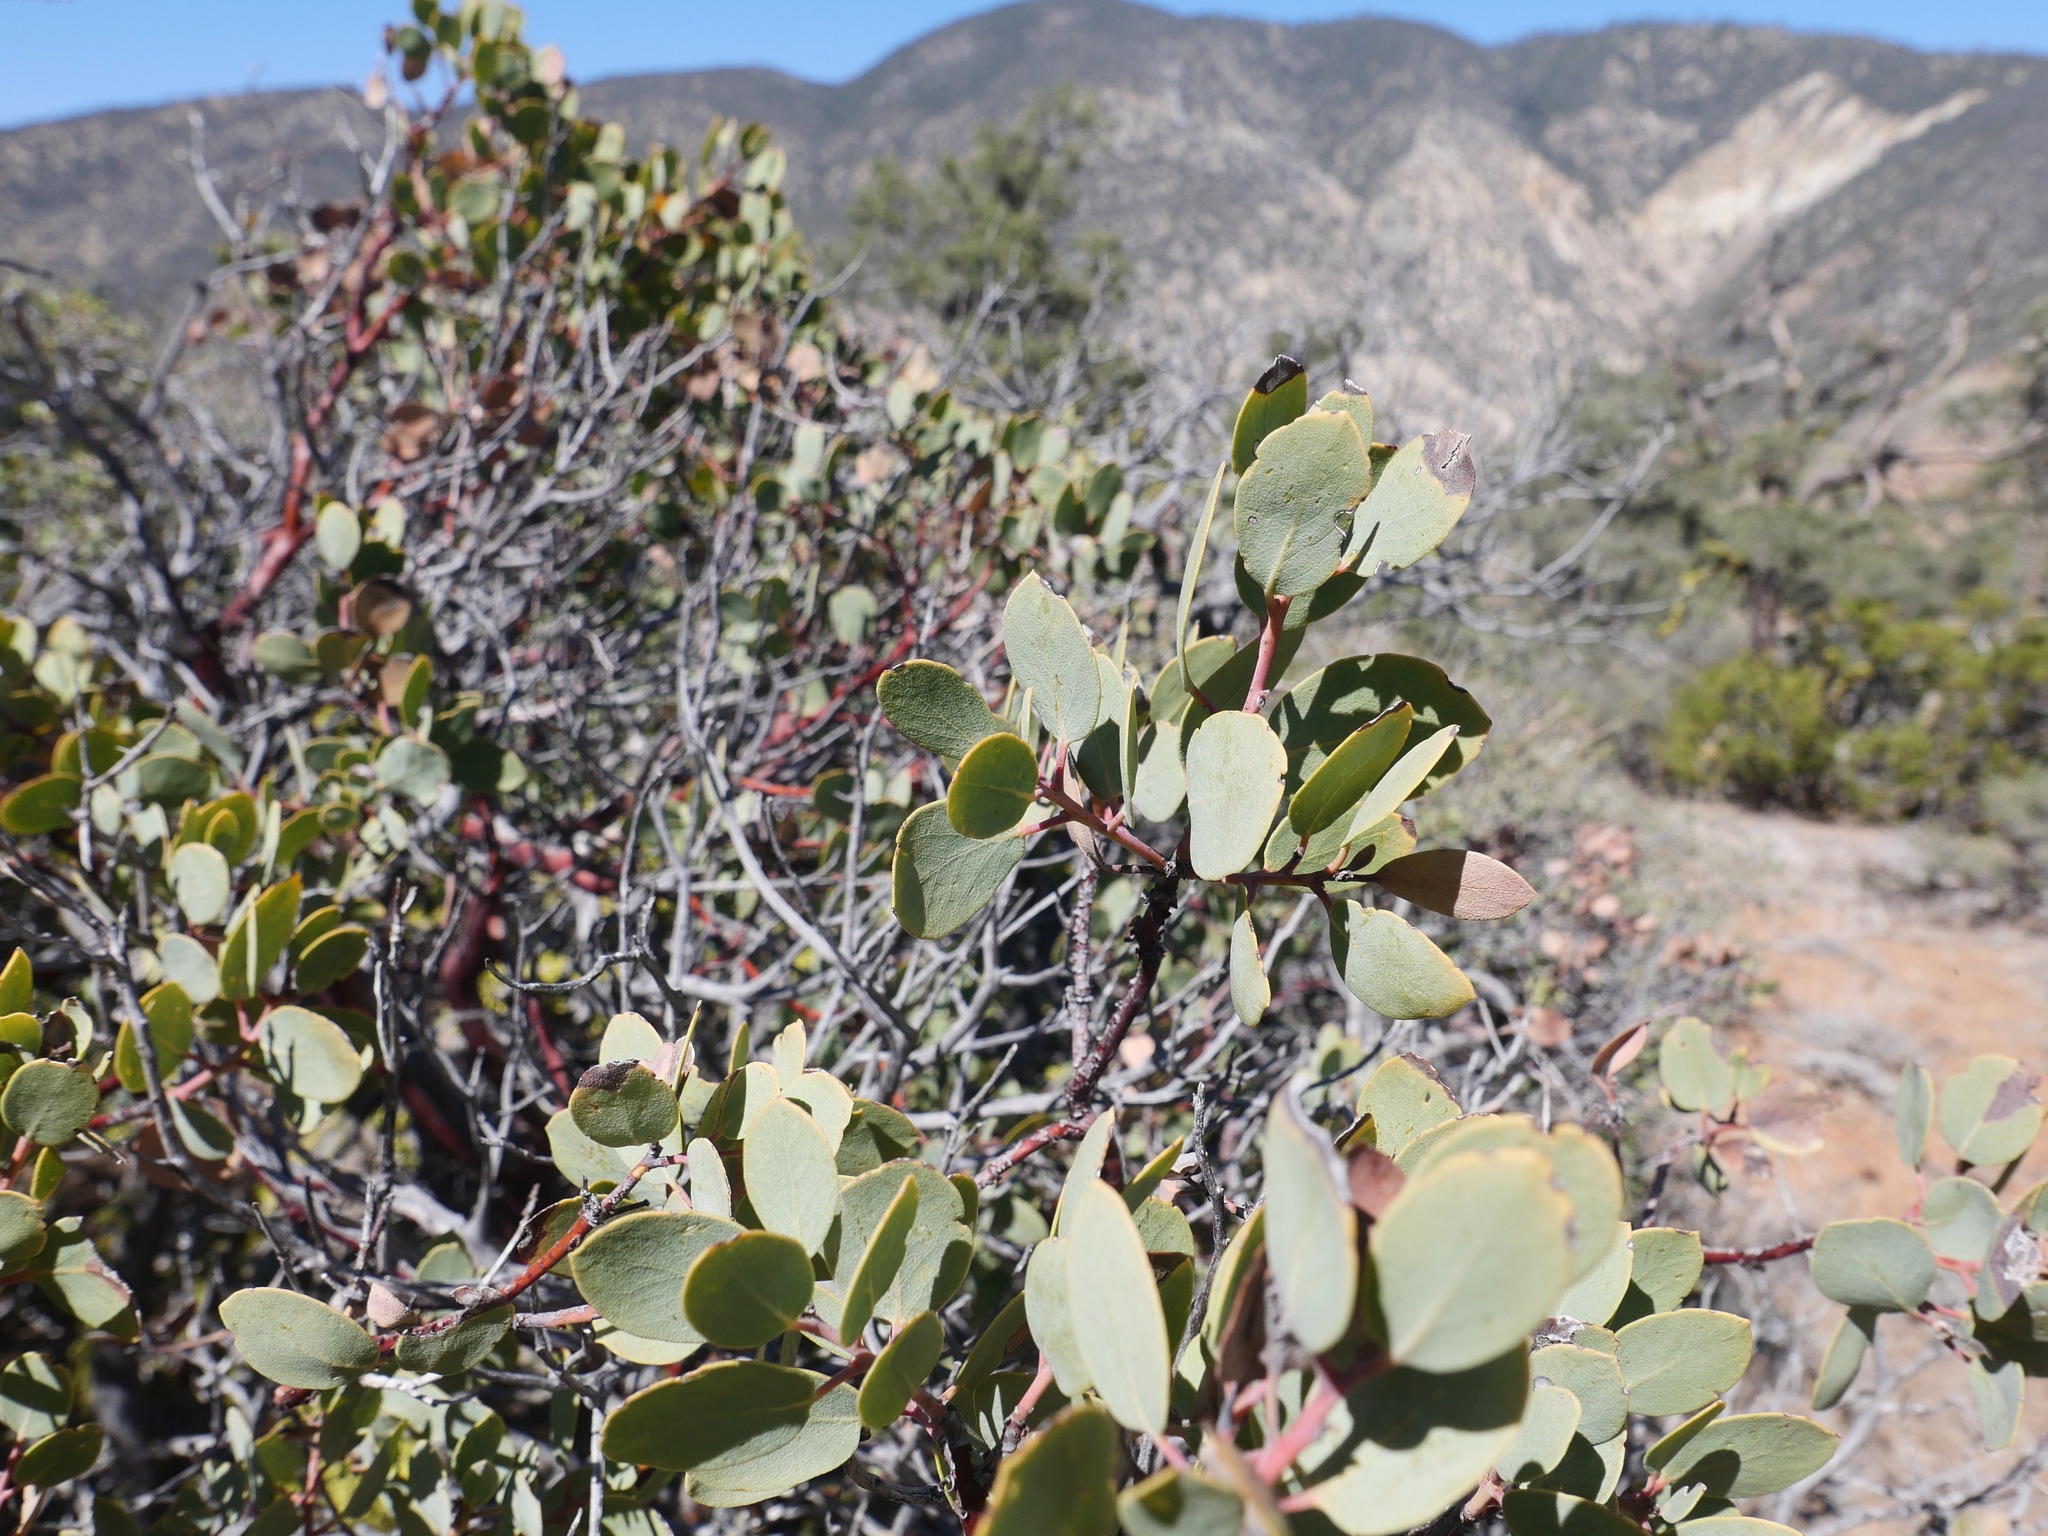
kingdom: Plantae
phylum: Tracheophyta
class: Magnoliopsida
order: Ericales
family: Ericaceae
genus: Arctostaphylos
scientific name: Arctostaphylos glauca
